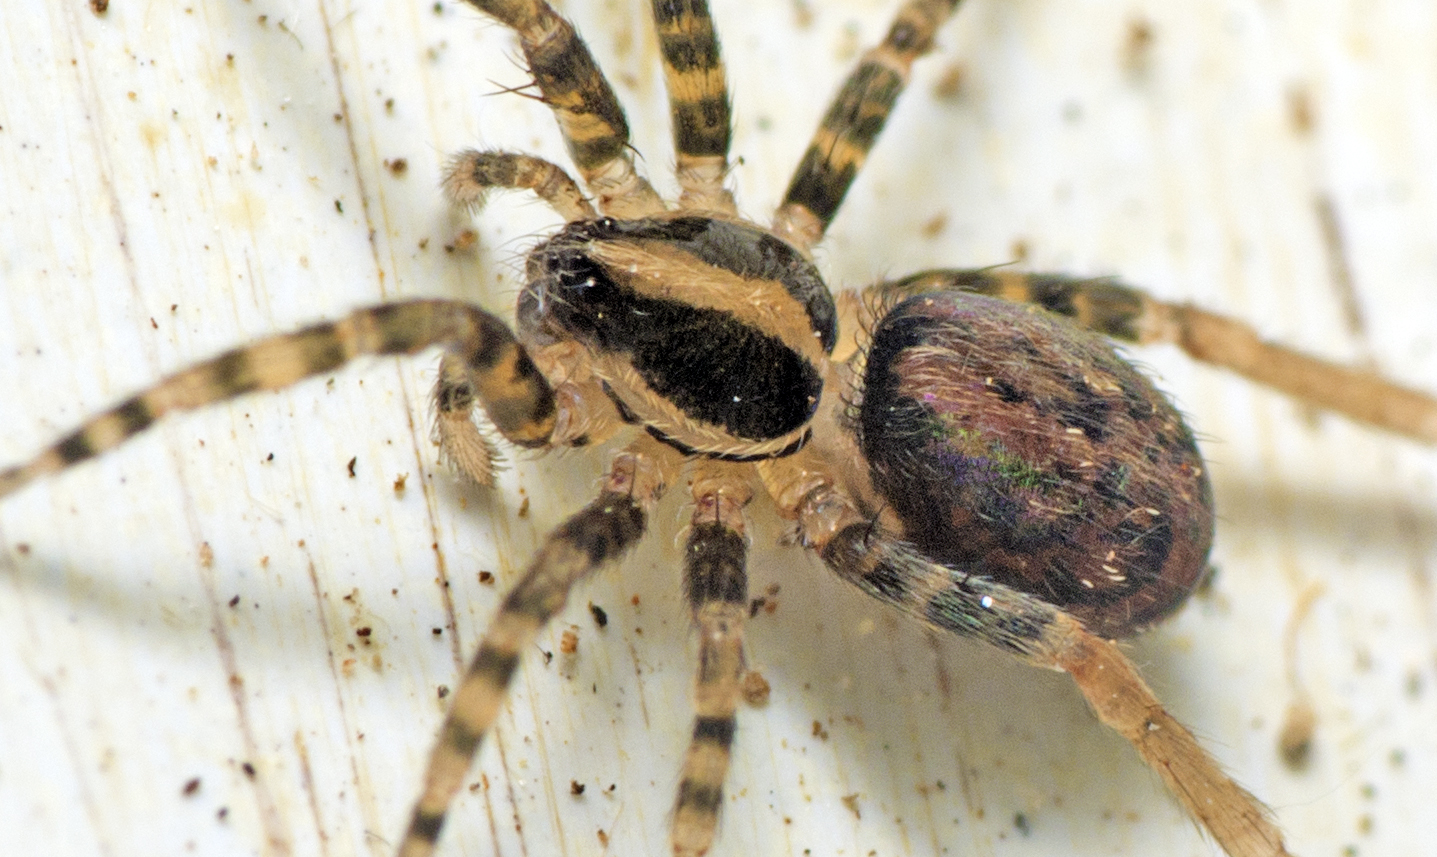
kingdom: Animalia
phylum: Arthropoda
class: Arachnida
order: Araneae
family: Miturgidae
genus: Hestimodema
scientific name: Hestimodema ambigua
